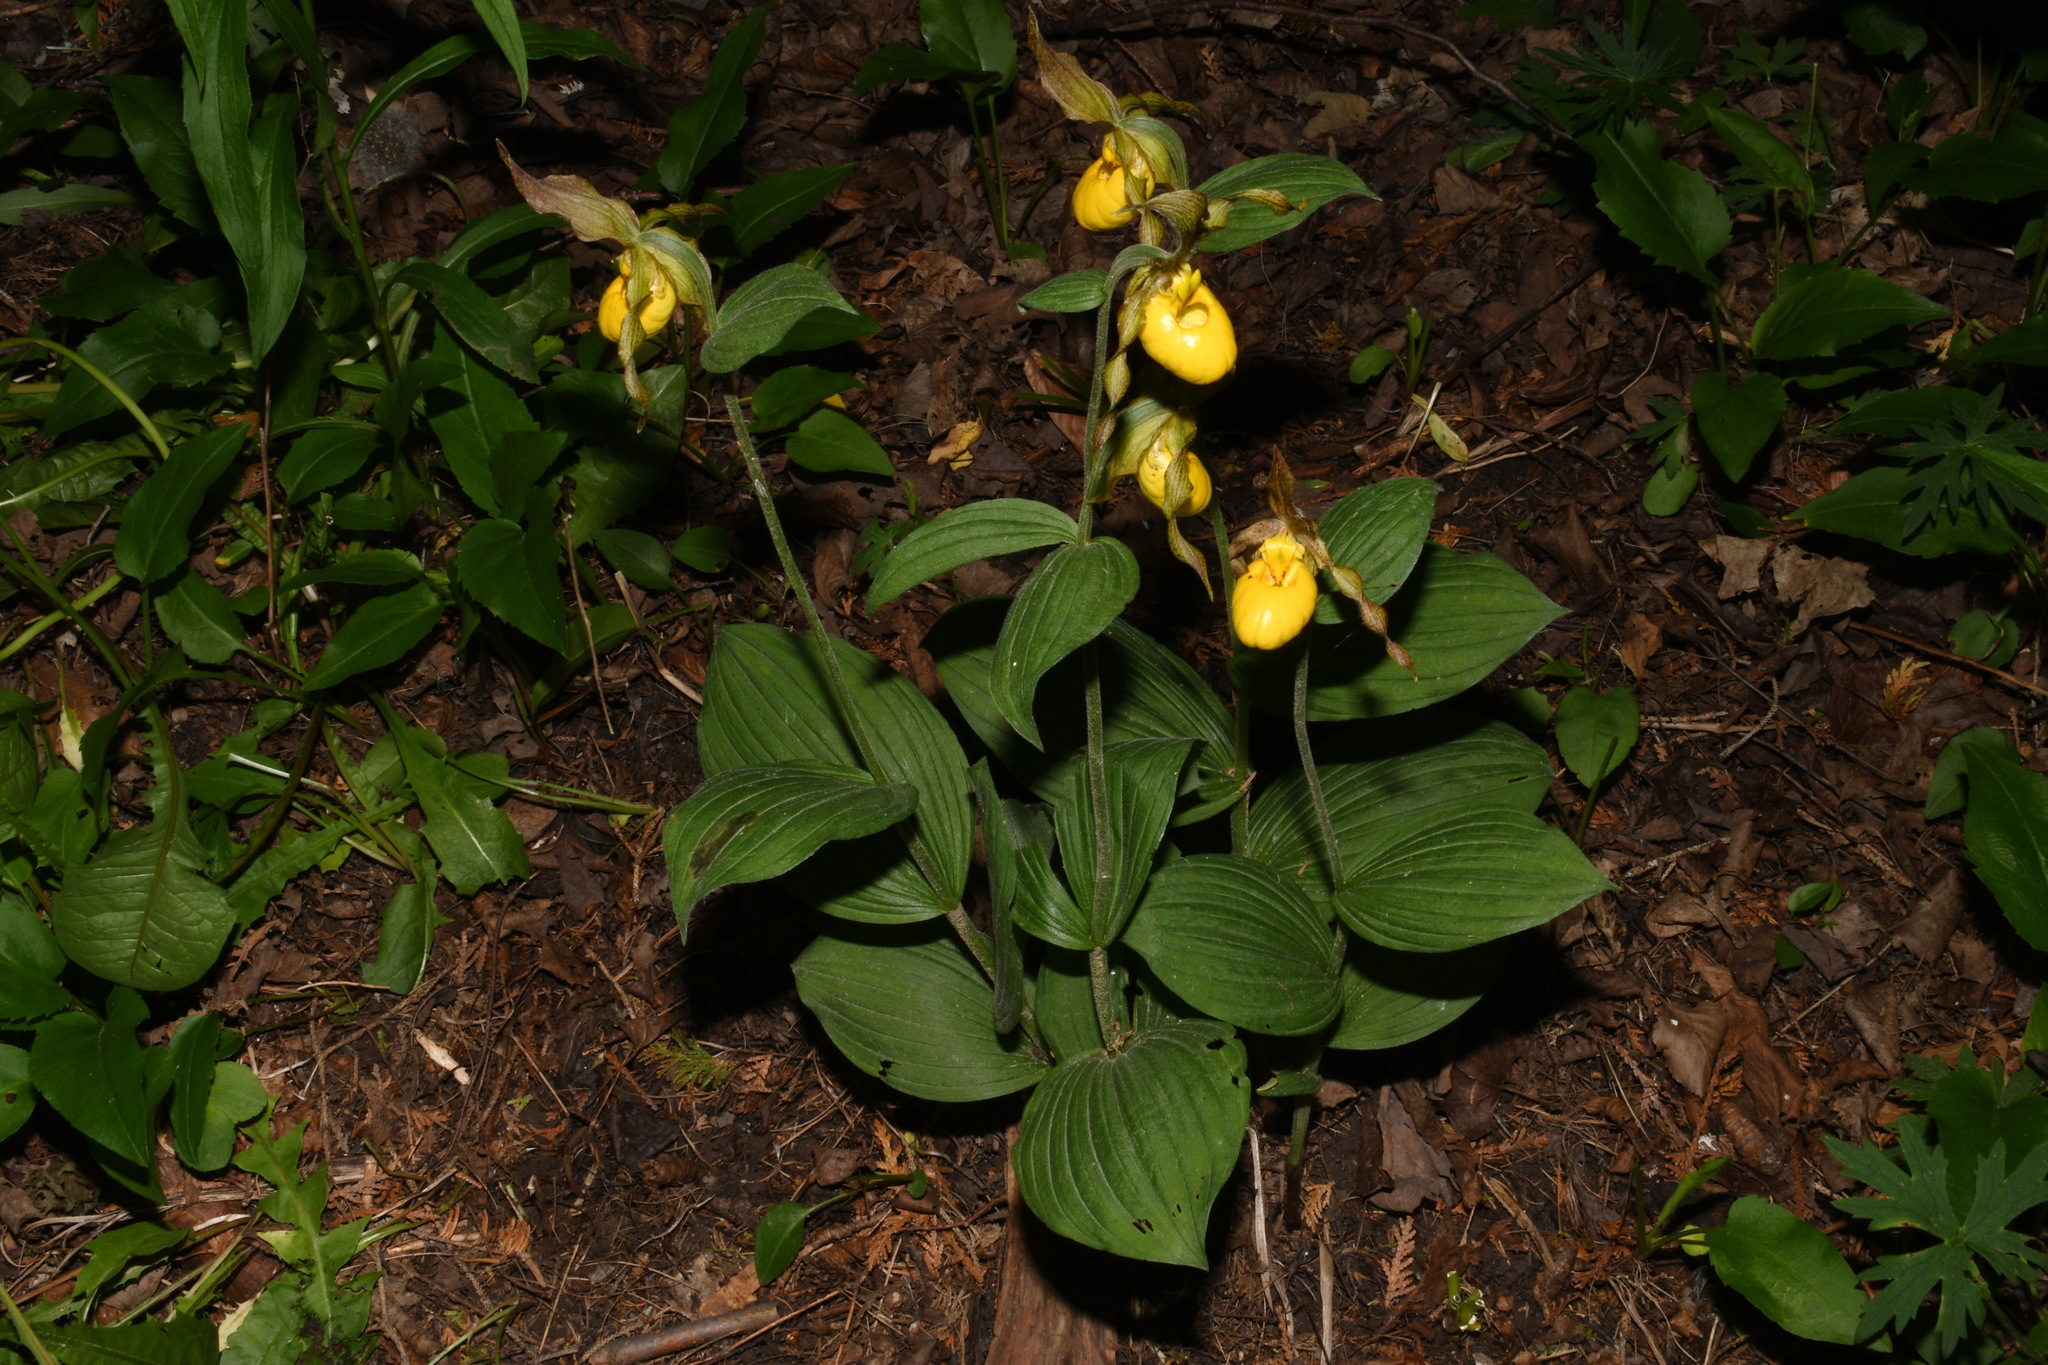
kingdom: Plantae
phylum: Tracheophyta
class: Liliopsida
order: Asparagales
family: Orchidaceae
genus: Cypripedium
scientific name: Cypripedium parviflorum
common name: American yellow lady's-slipper
